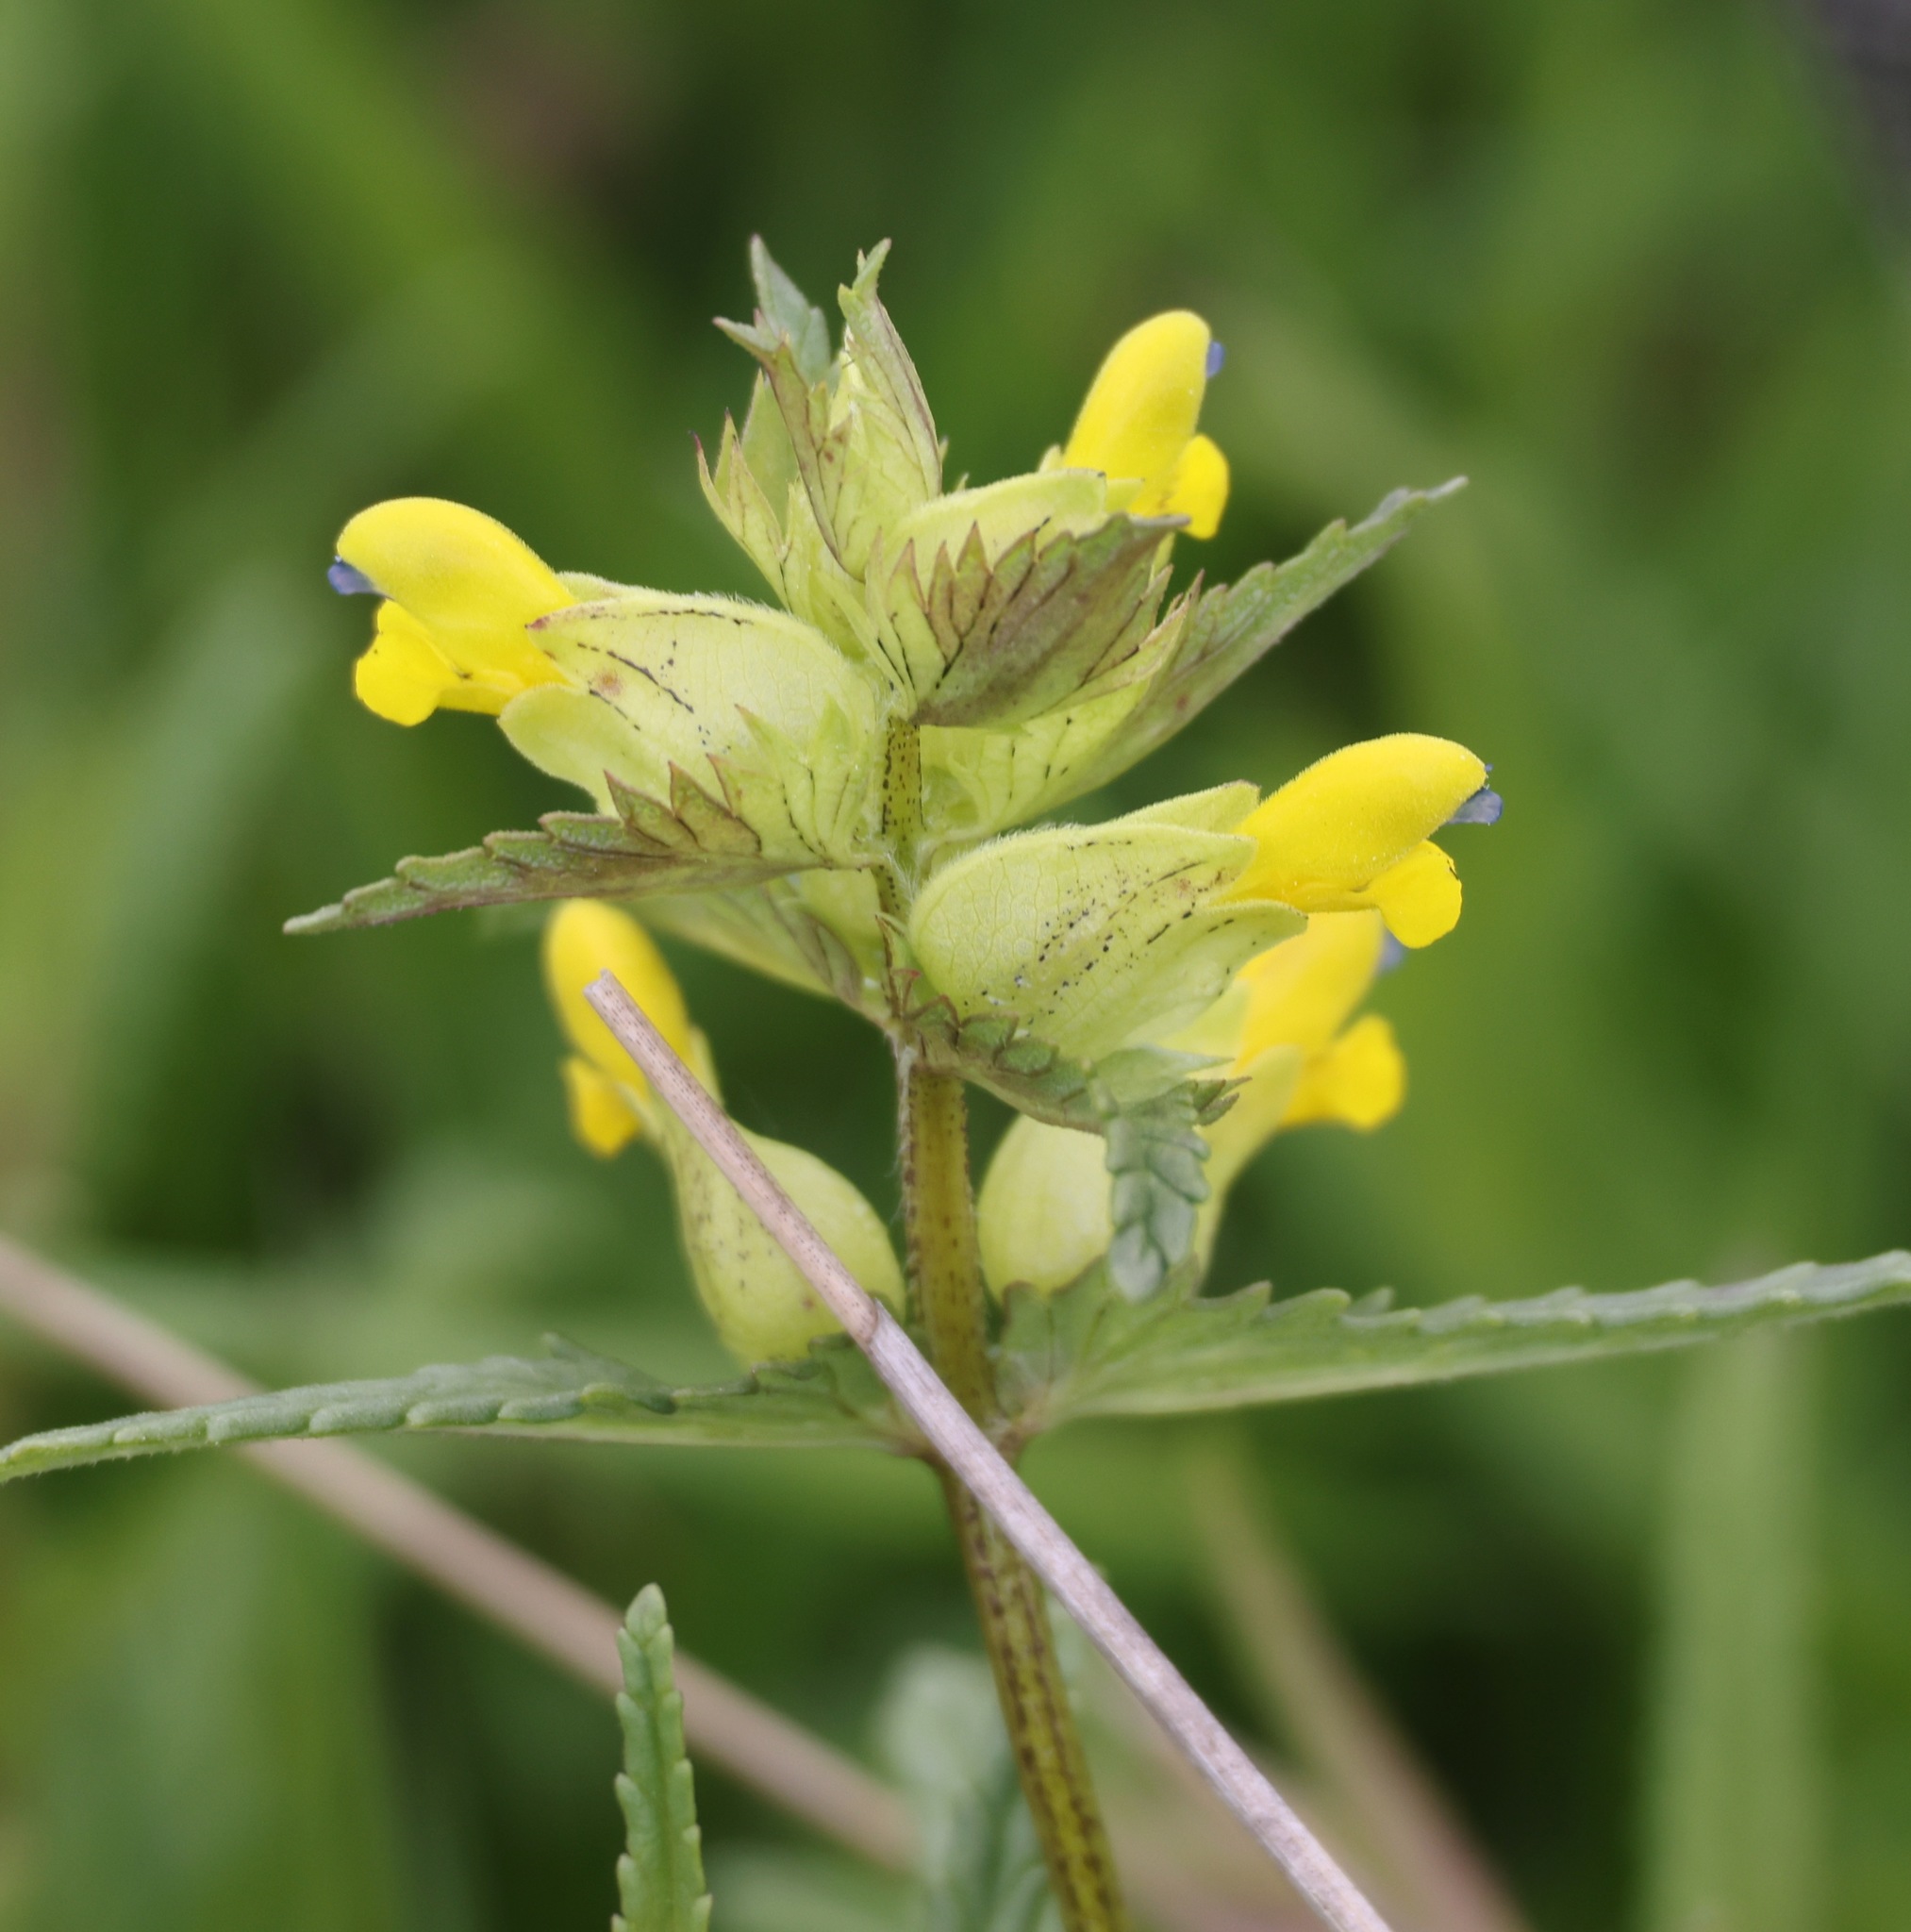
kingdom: Plantae
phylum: Tracheophyta
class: Magnoliopsida
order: Lamiales
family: Orobanchaceae
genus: Rhinanthus
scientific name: Rhinanthus minor
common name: Yellow-rattle
